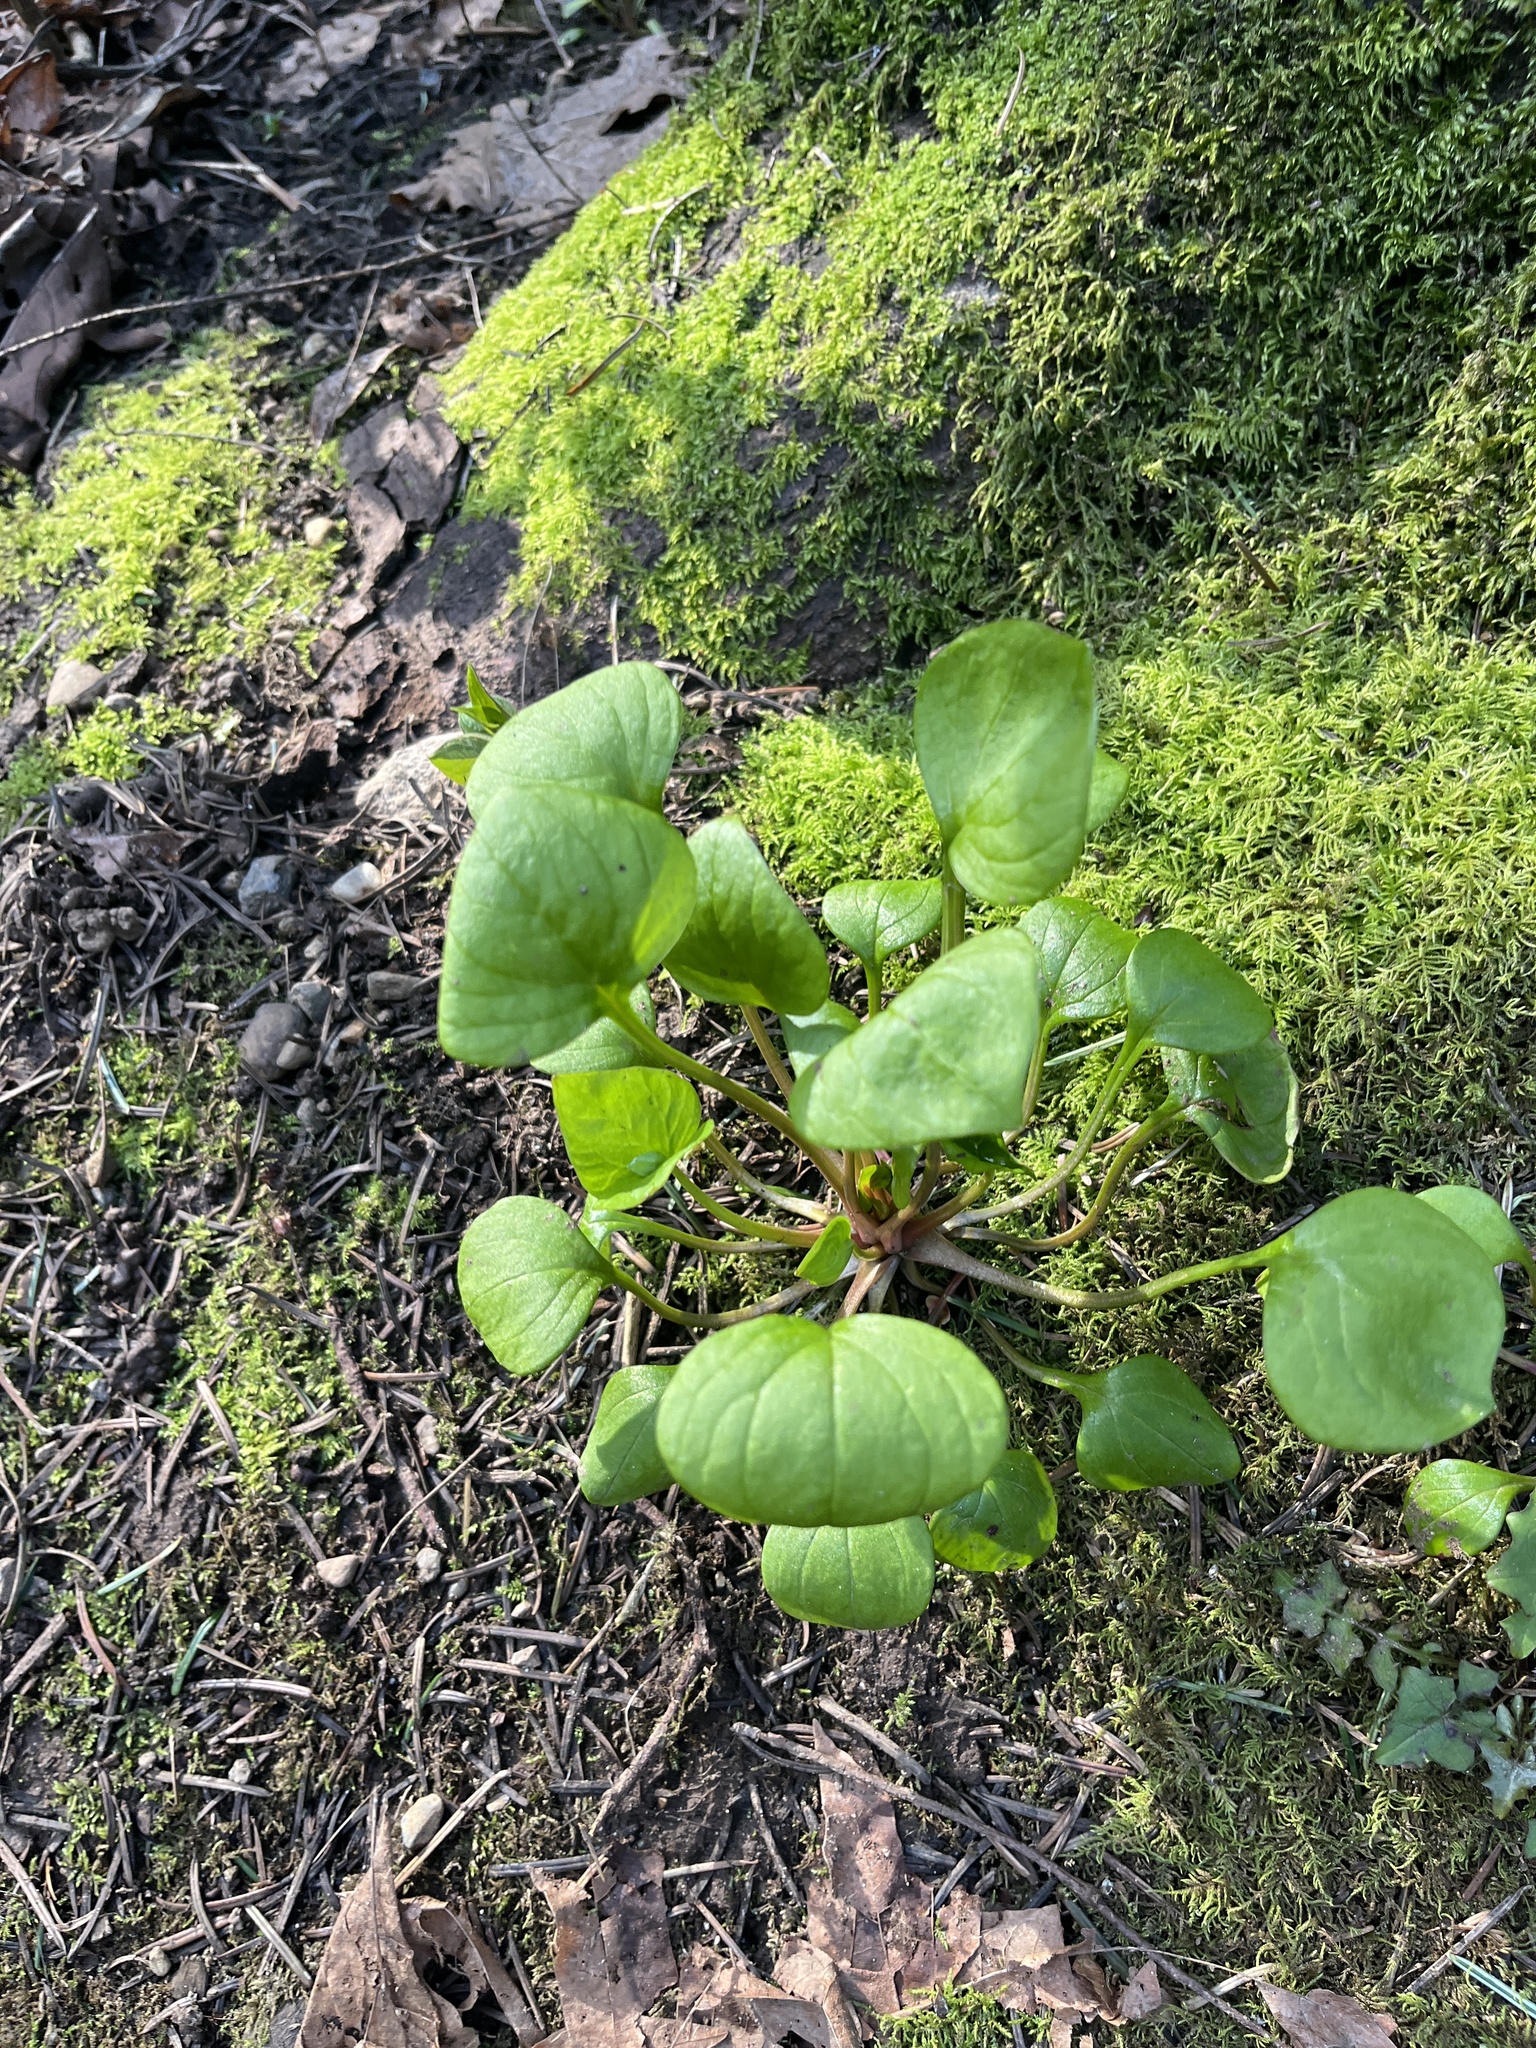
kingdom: Plantae
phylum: Tracheophyta
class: Magnoliopsida
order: Caryophyllales
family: Montiaceae
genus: Claytonia
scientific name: Claytonia perfoliata
